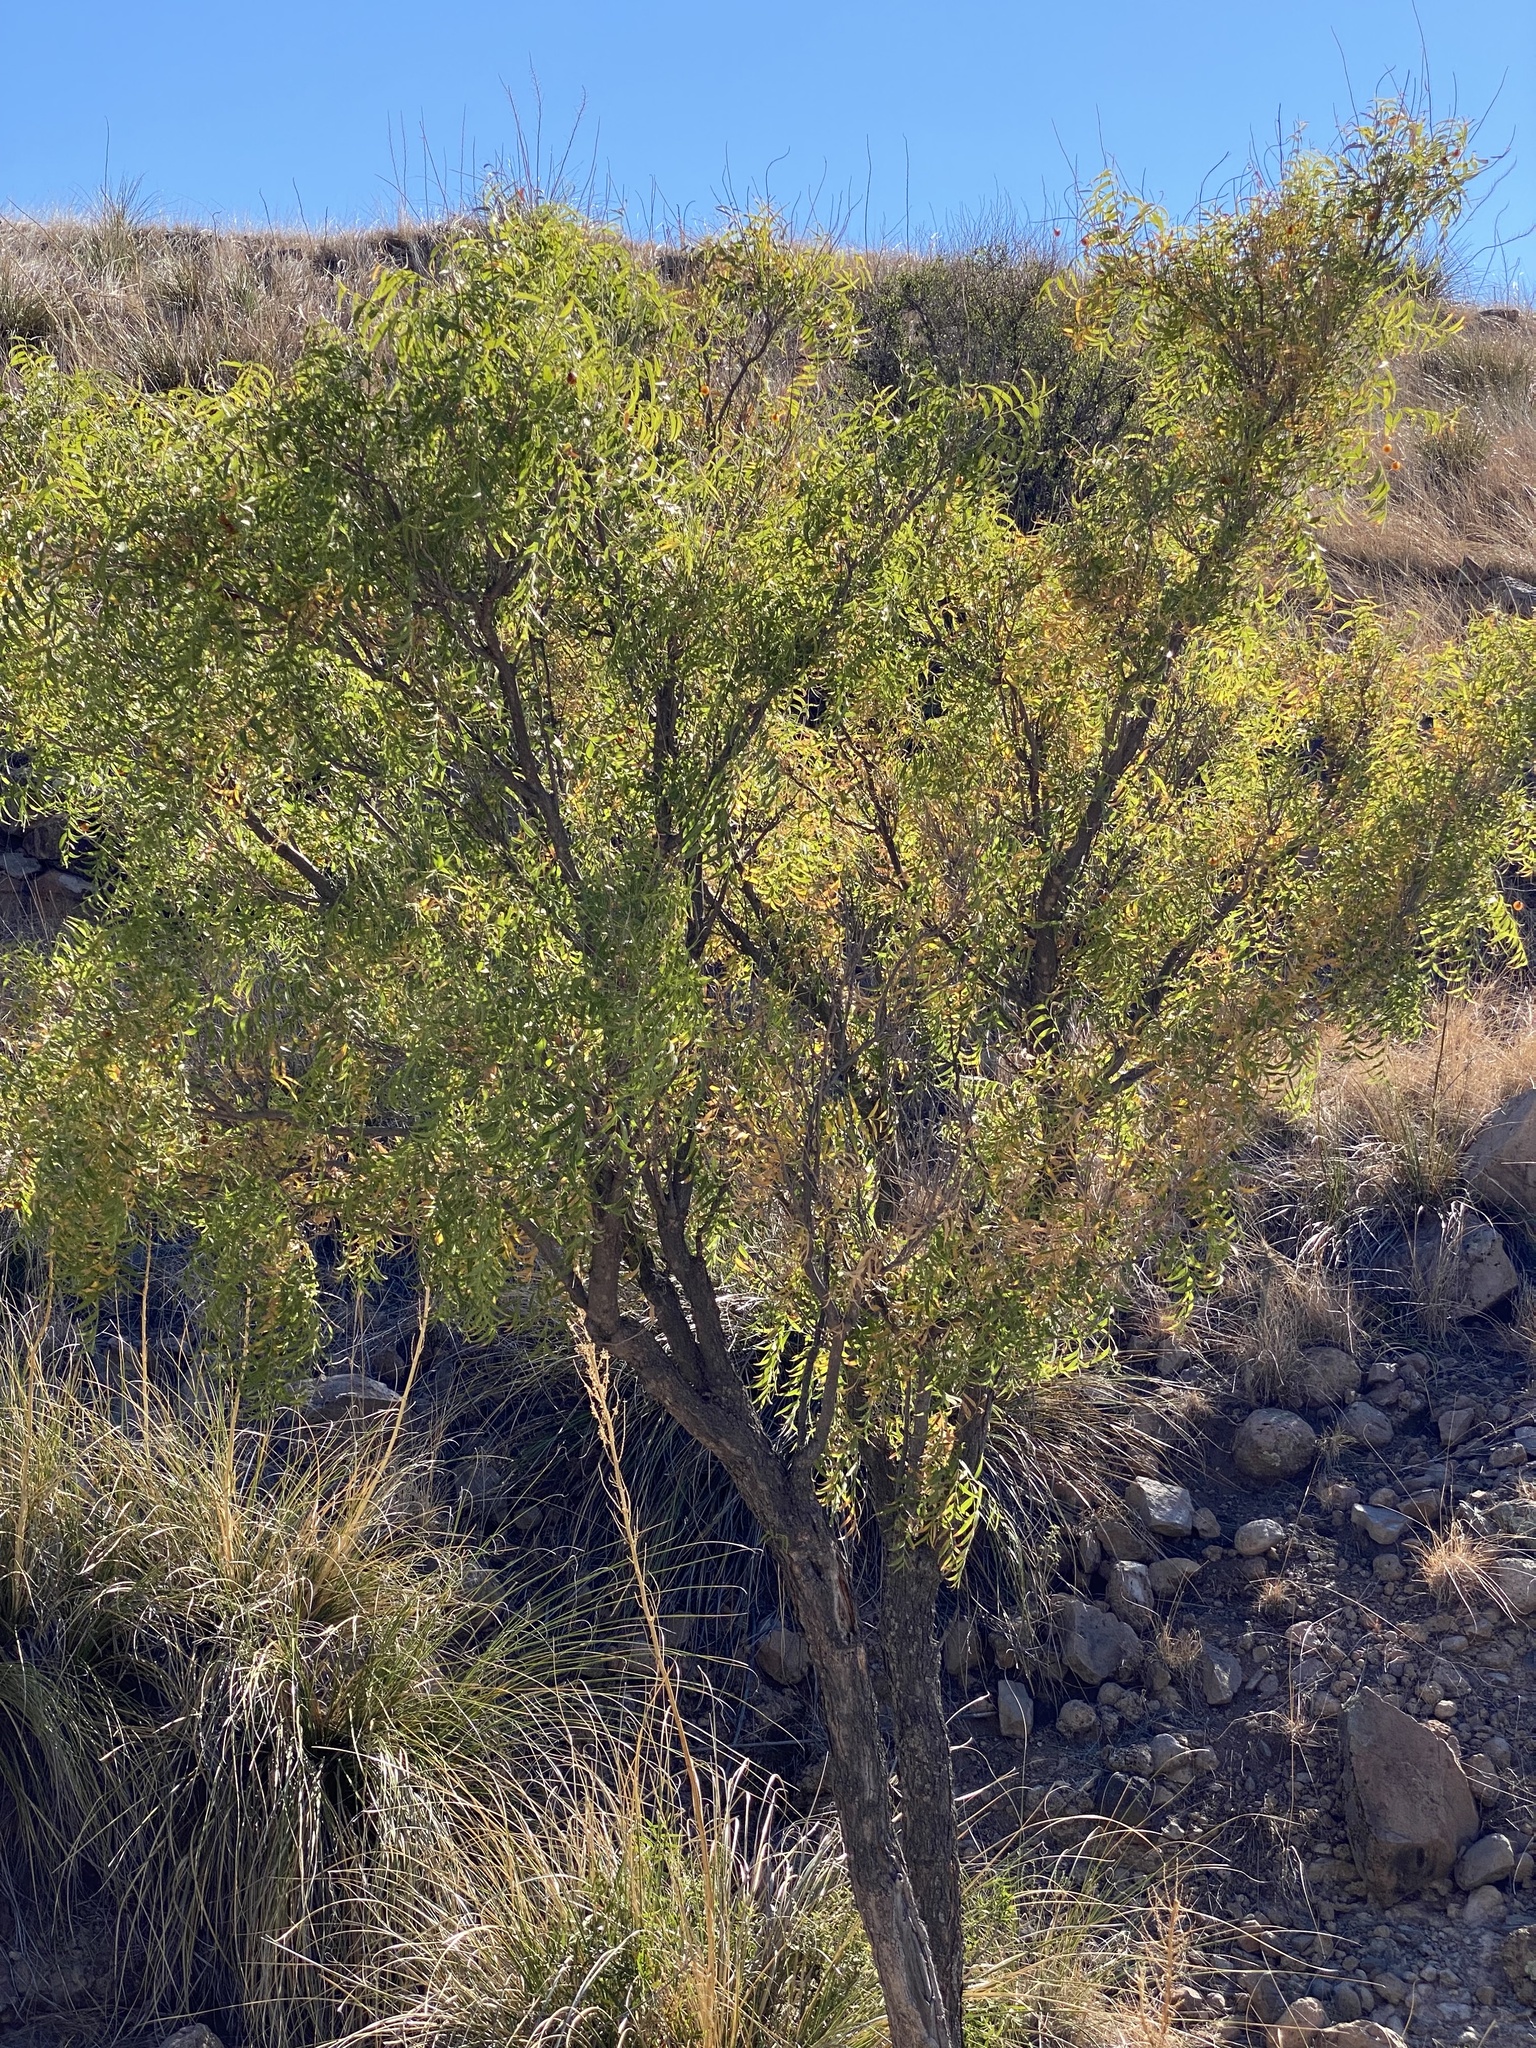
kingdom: Plantae
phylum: Tracheophyta
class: Magnoliopsida
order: Sapindales
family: Sapindaceae
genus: Sapindus
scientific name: Sapindus drummondii
